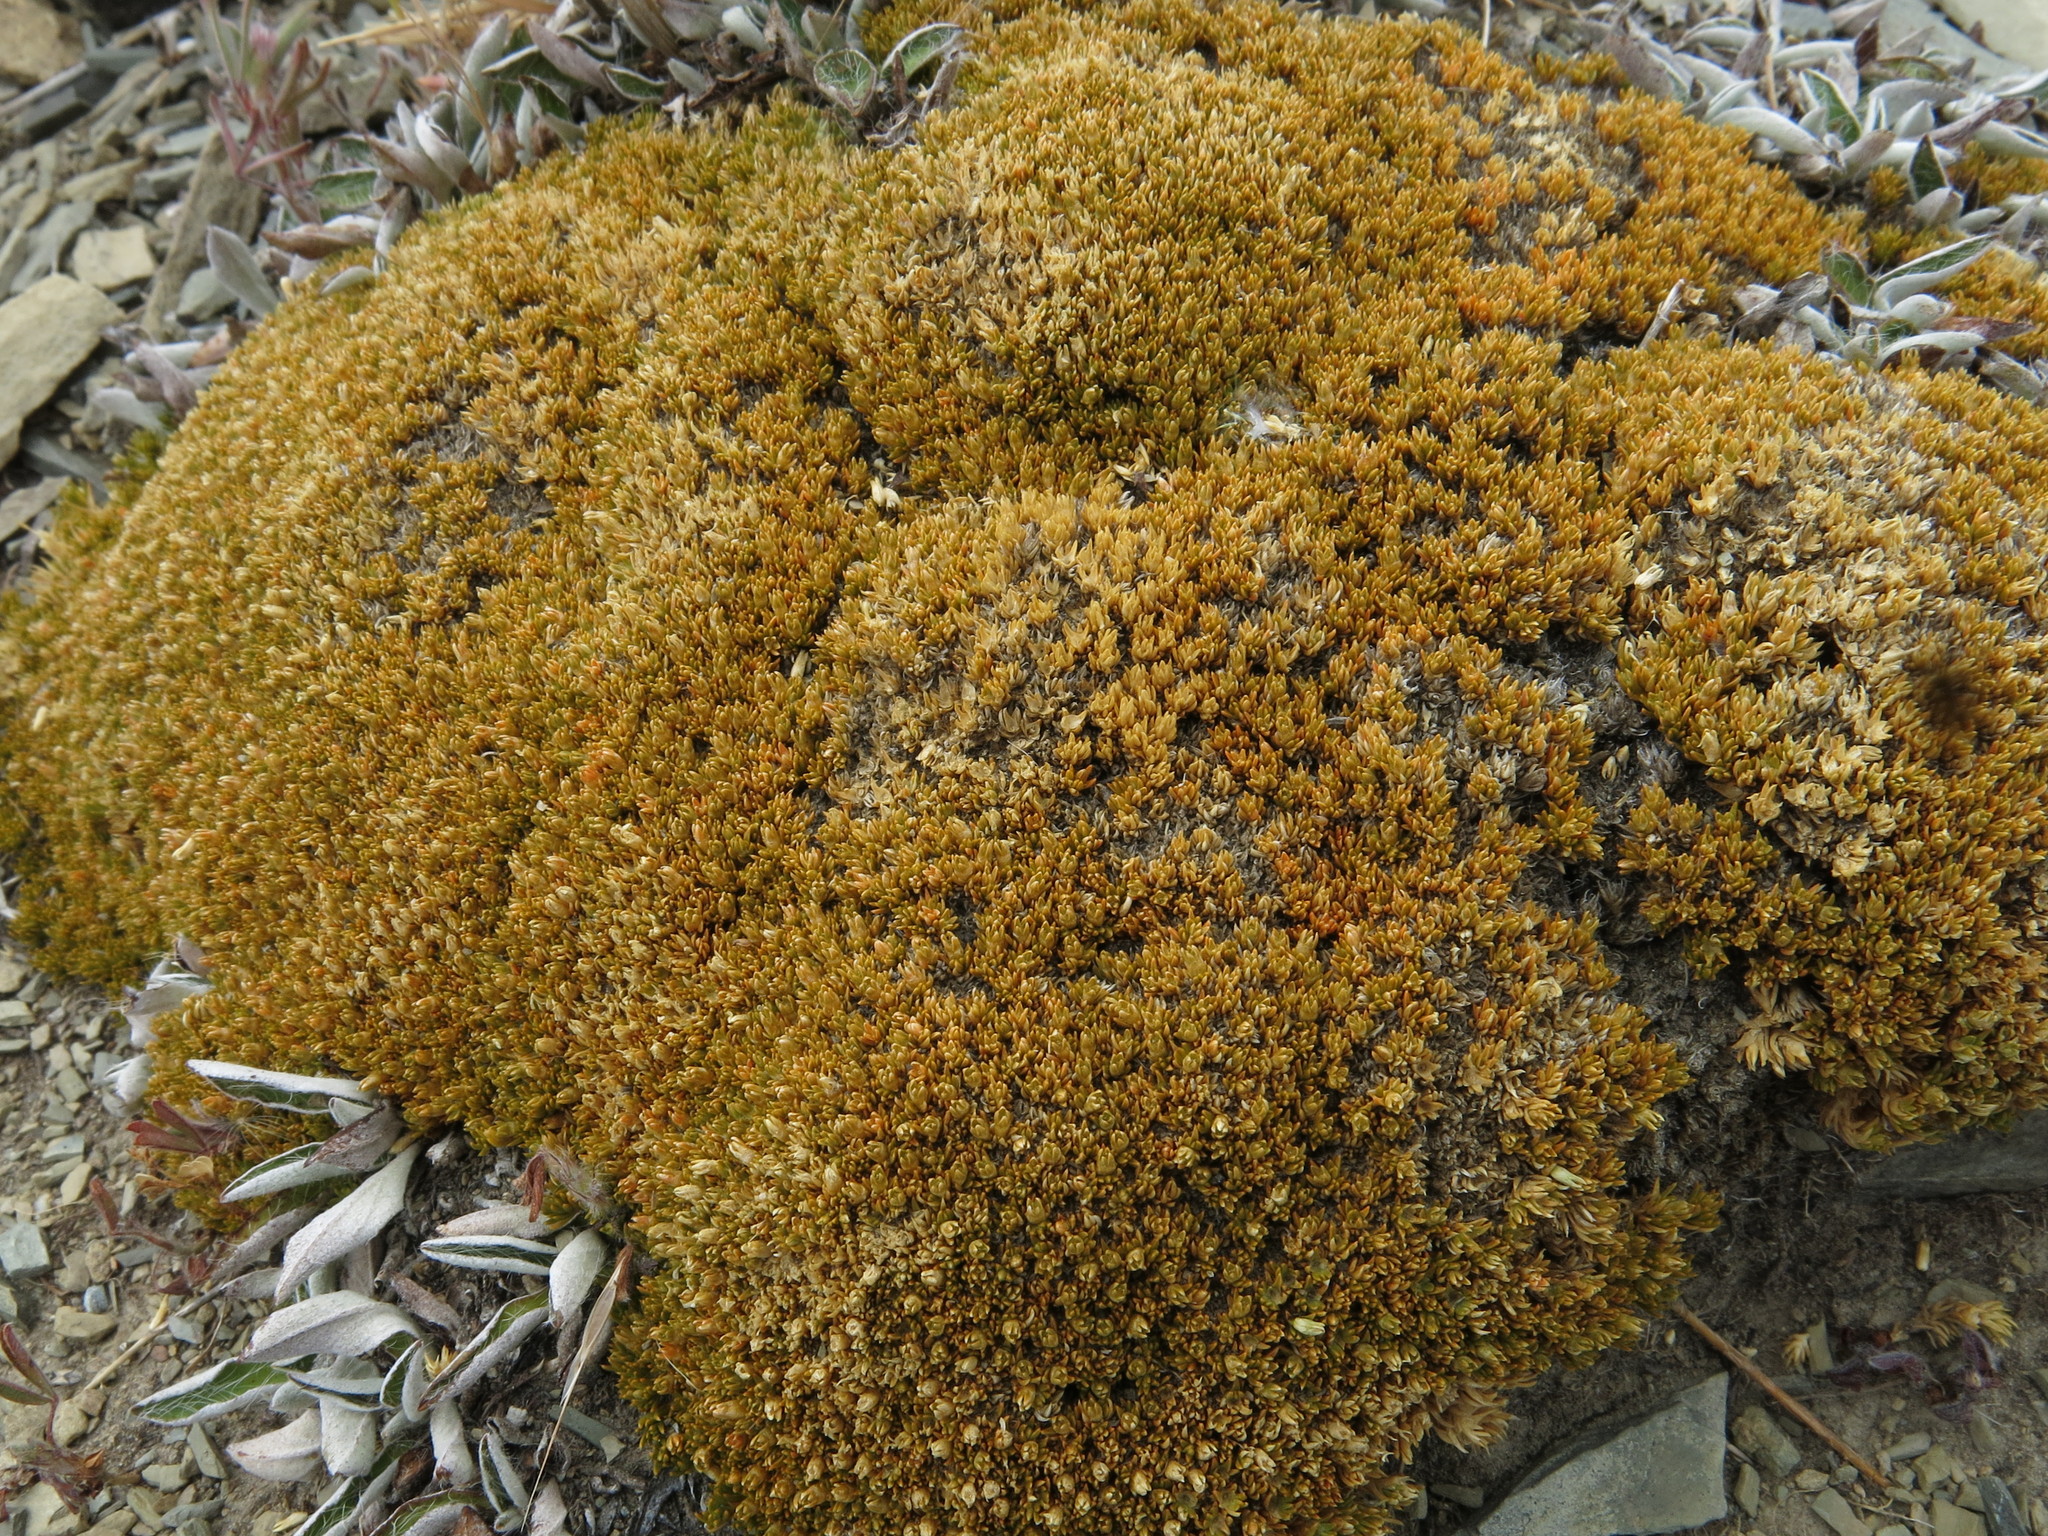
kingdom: Plantae
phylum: Tracheophyta
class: Magnoliopsida
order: Caryophyllales
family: Caryophyllaceae
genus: Scleranthus
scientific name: Scleranthus uniflorus
